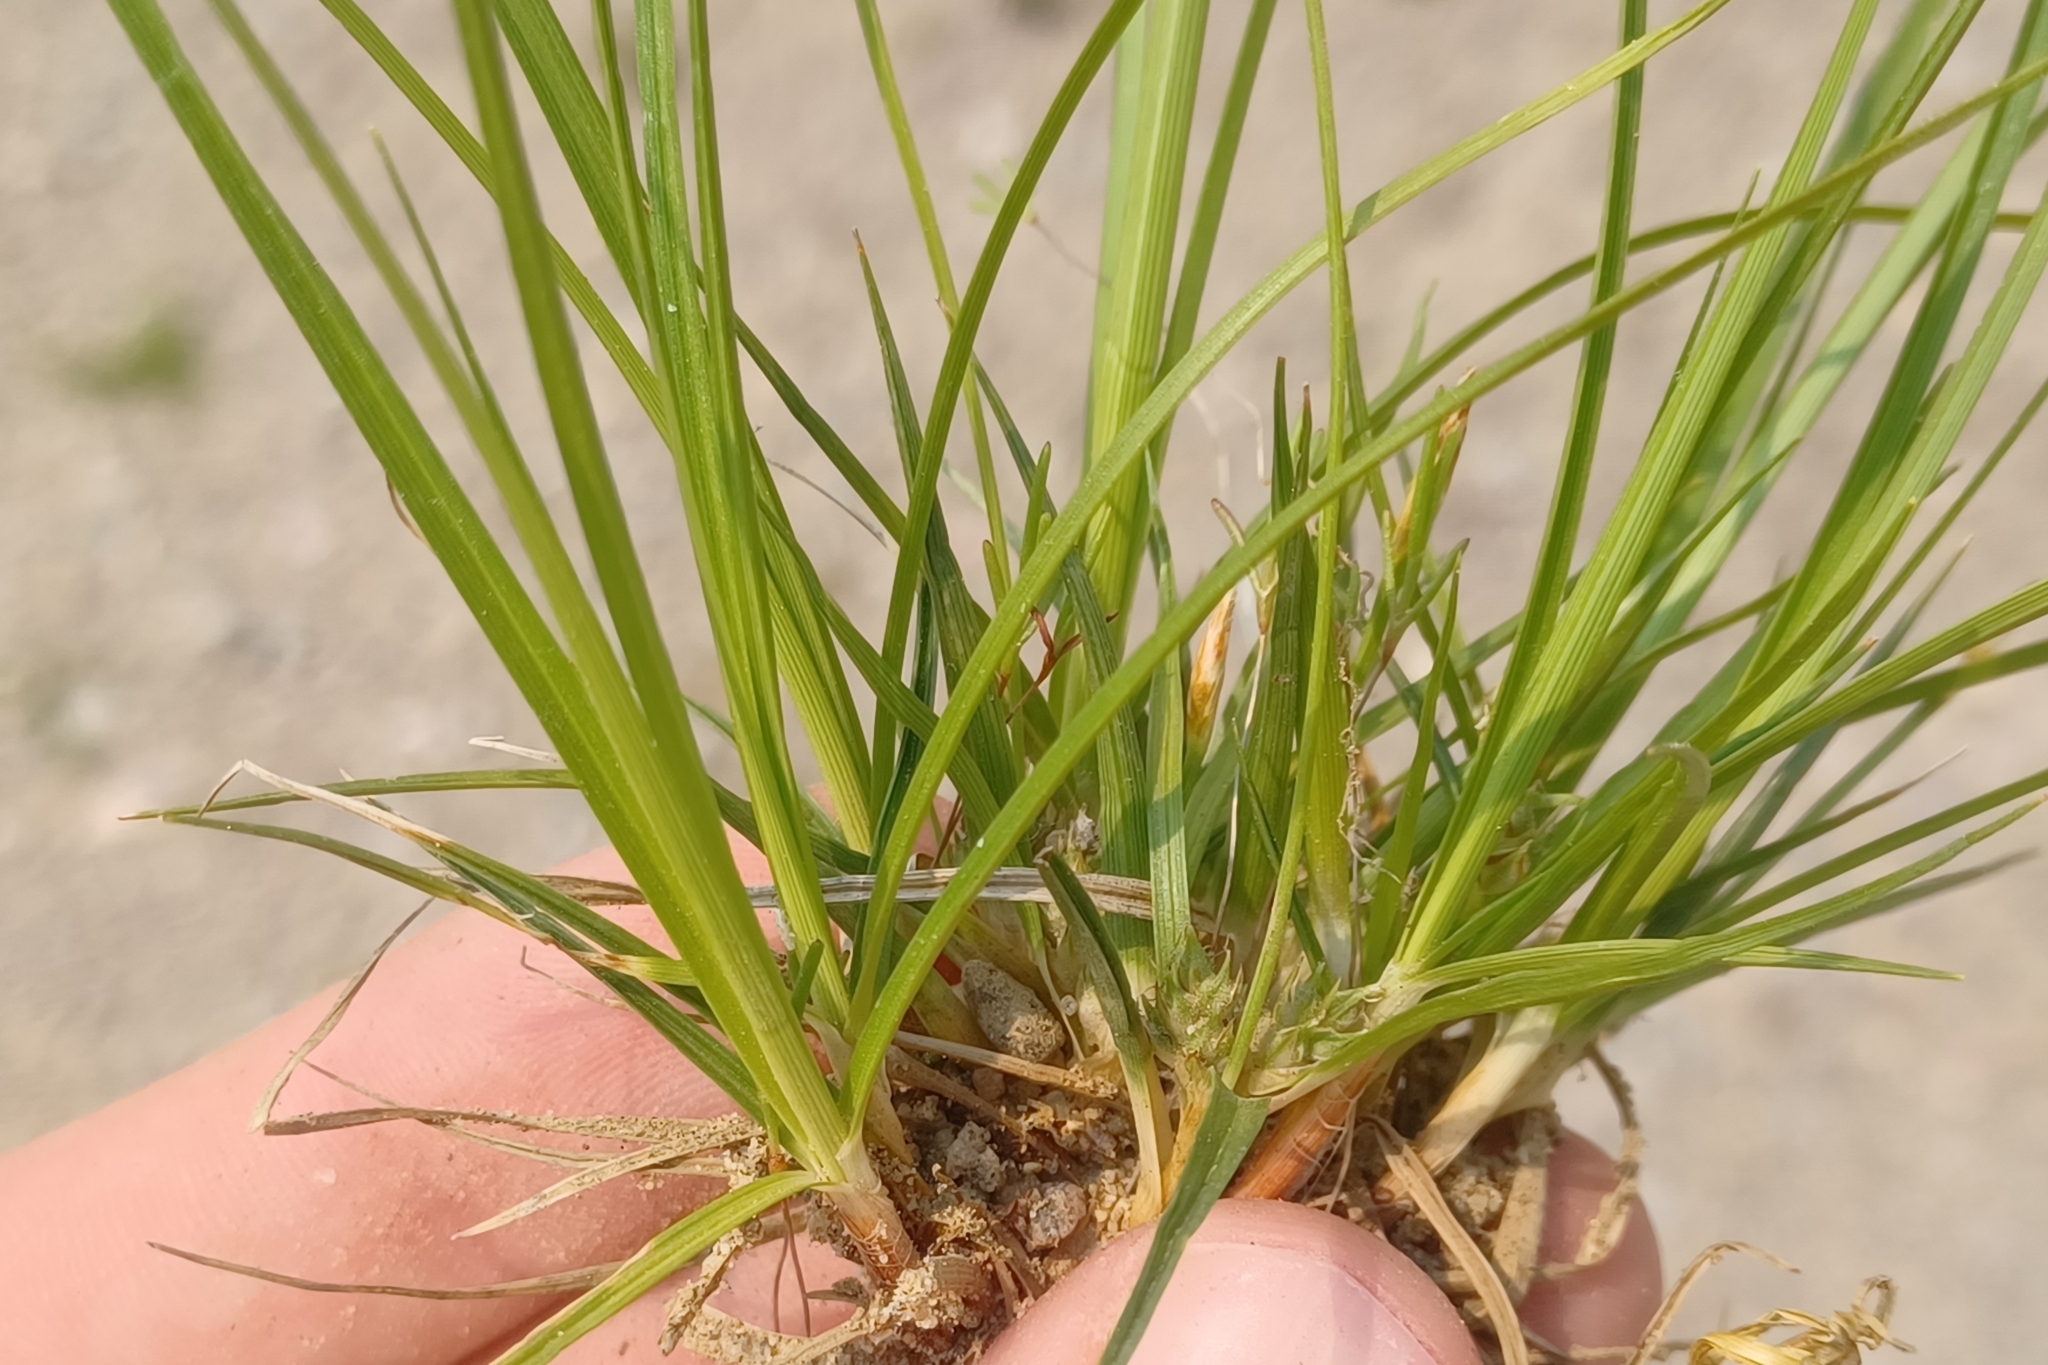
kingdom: Plantae
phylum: Tracheophyta
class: Liliopsida
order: Poales
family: Cyperaceae
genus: Carex
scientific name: Carex tonsa
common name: Bald sedge
